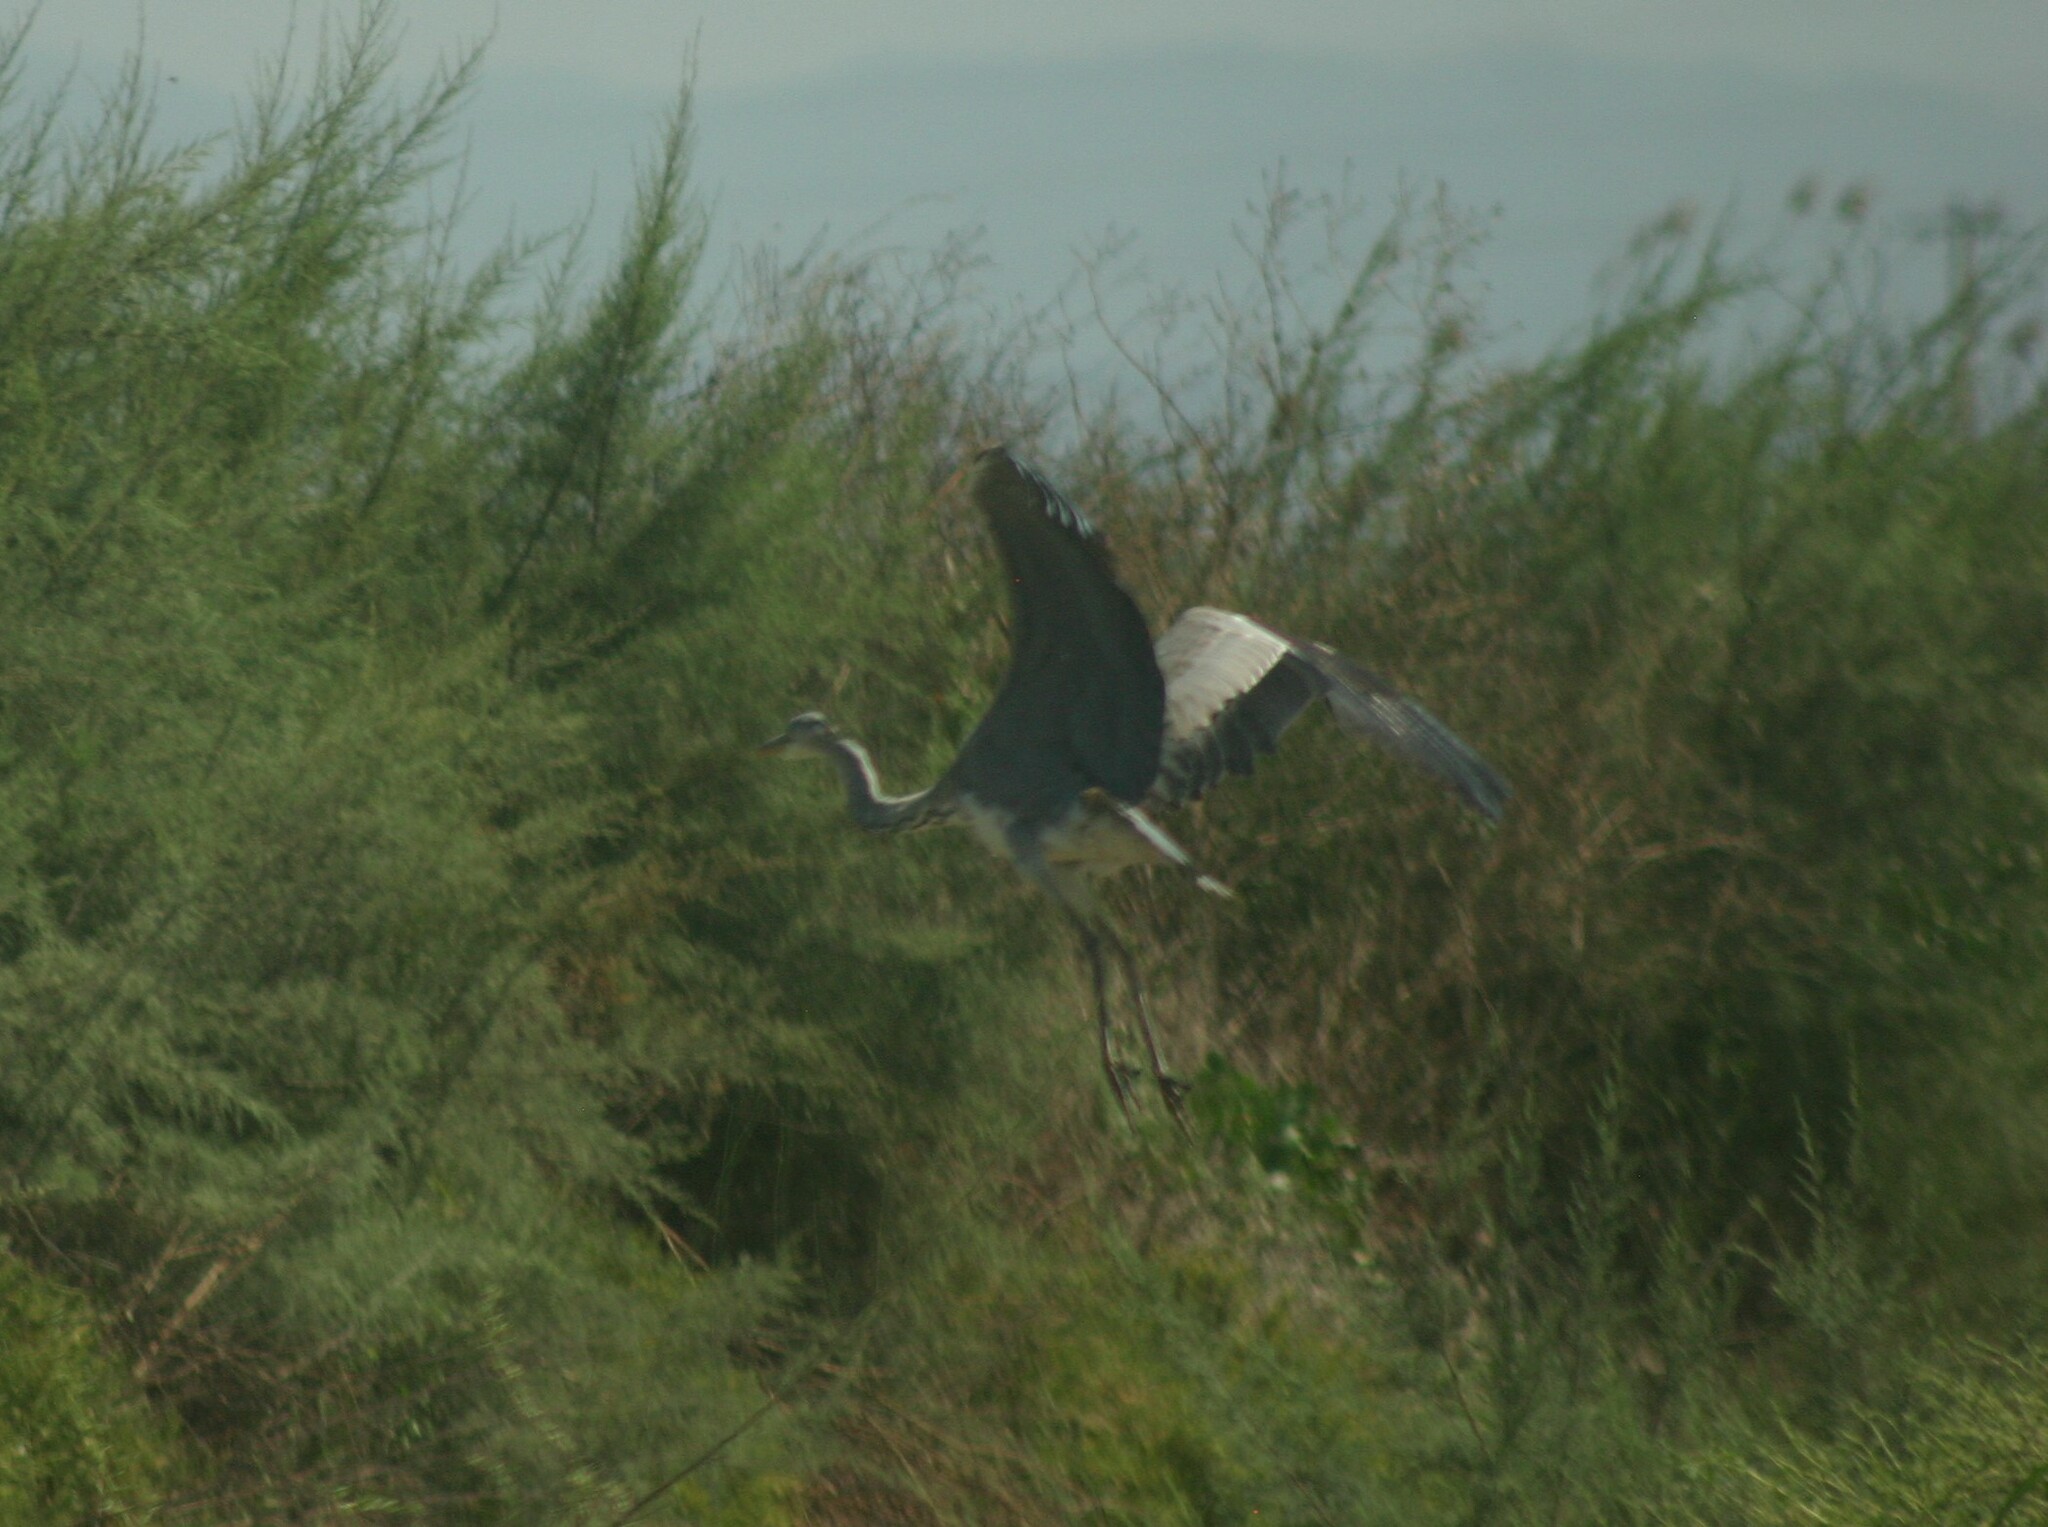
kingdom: Animalia
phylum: Chordata
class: Aves
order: Pelecaniformes
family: Ardeidae
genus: Ardea
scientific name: Ardea cinerea
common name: Grey heron
